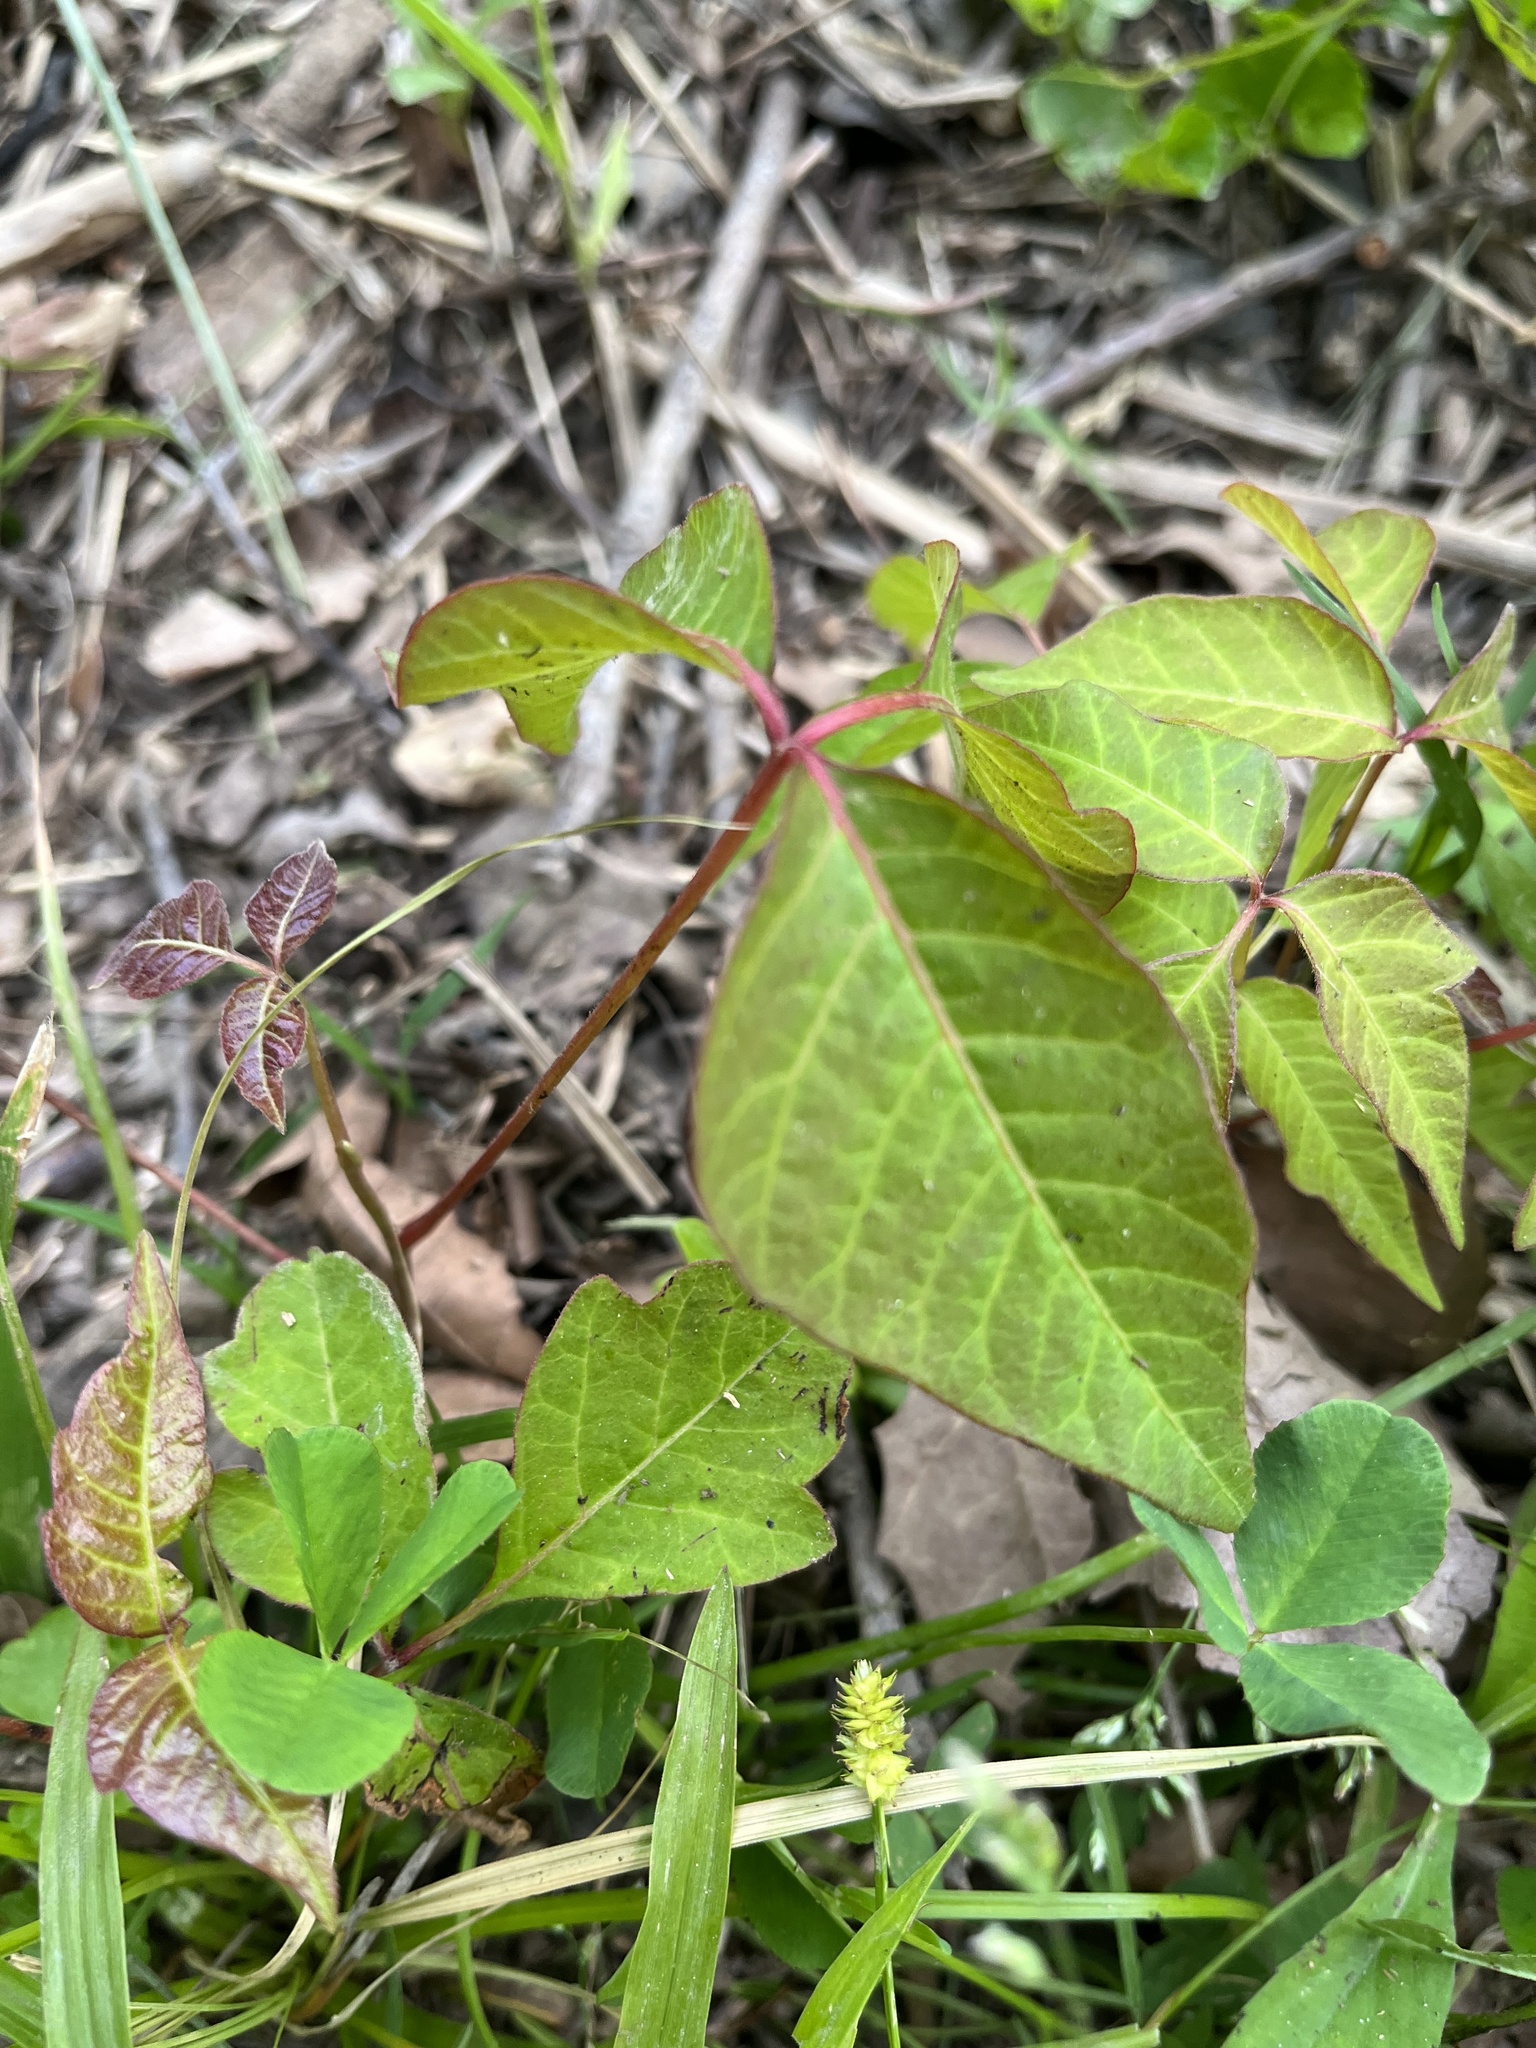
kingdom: Plantae
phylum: Tracheophyta
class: Magnoliopsida
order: Sapindales
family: Anacardiaceae
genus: Toxicodendron
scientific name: Toxicodendron radicans
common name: Poison ivy
